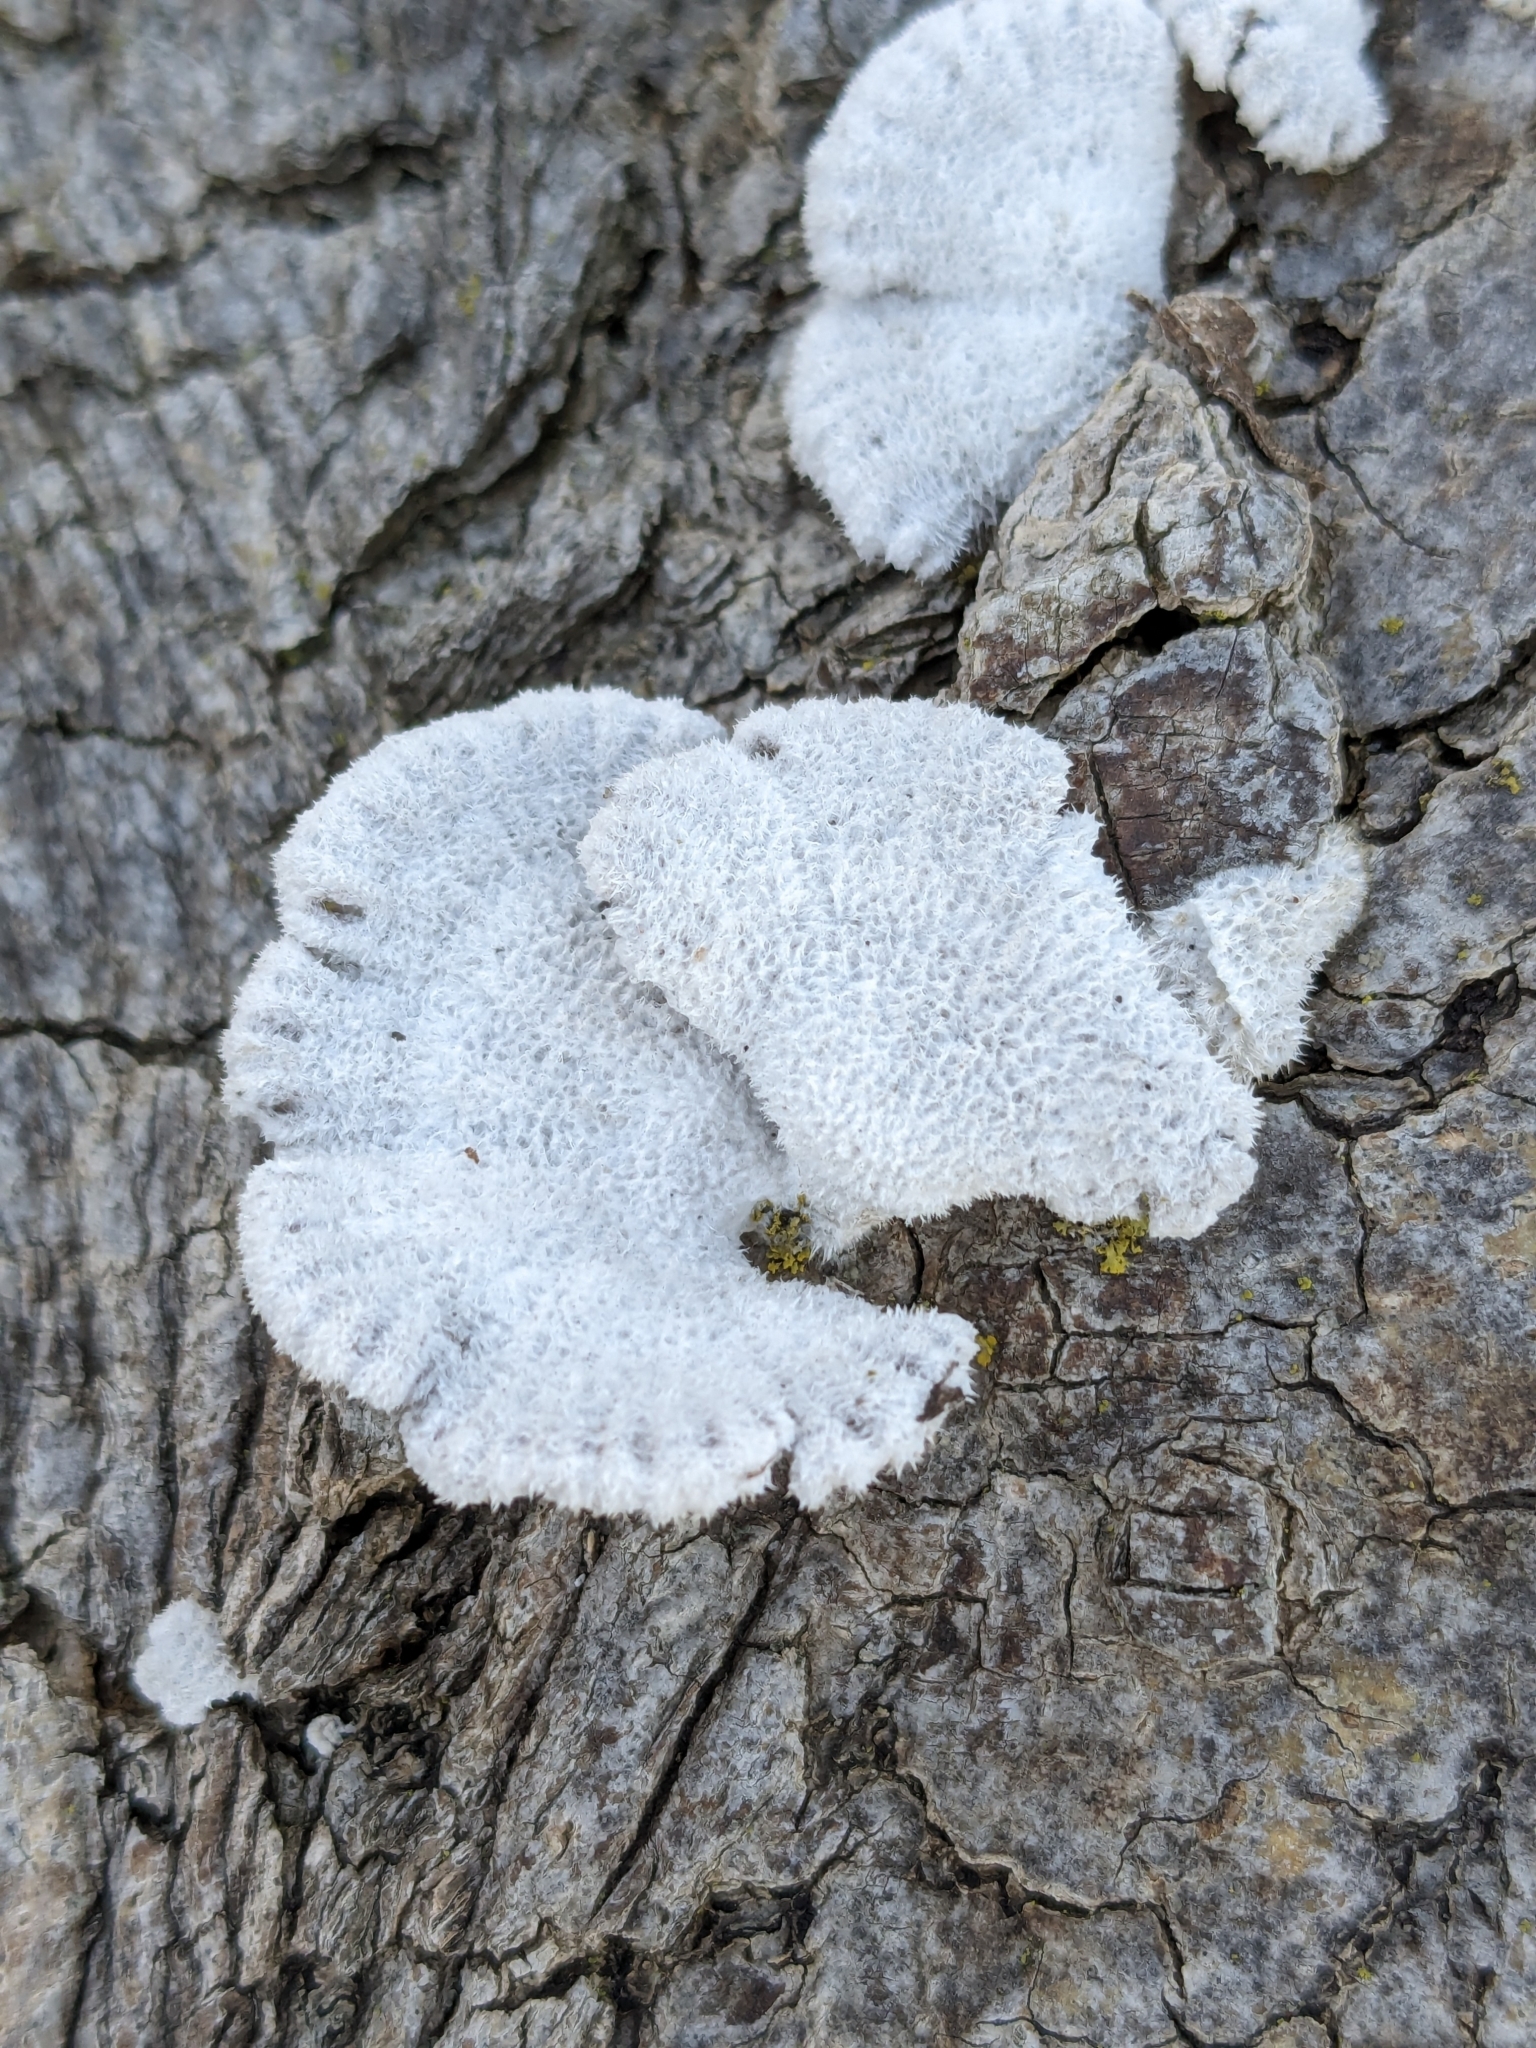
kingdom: Fungi
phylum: Basidiomycota
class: Agaricomycetes
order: Agaricales
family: Schizophyllaceae
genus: Schizophyllum
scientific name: Schizophyllum commune
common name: Common porecrust
